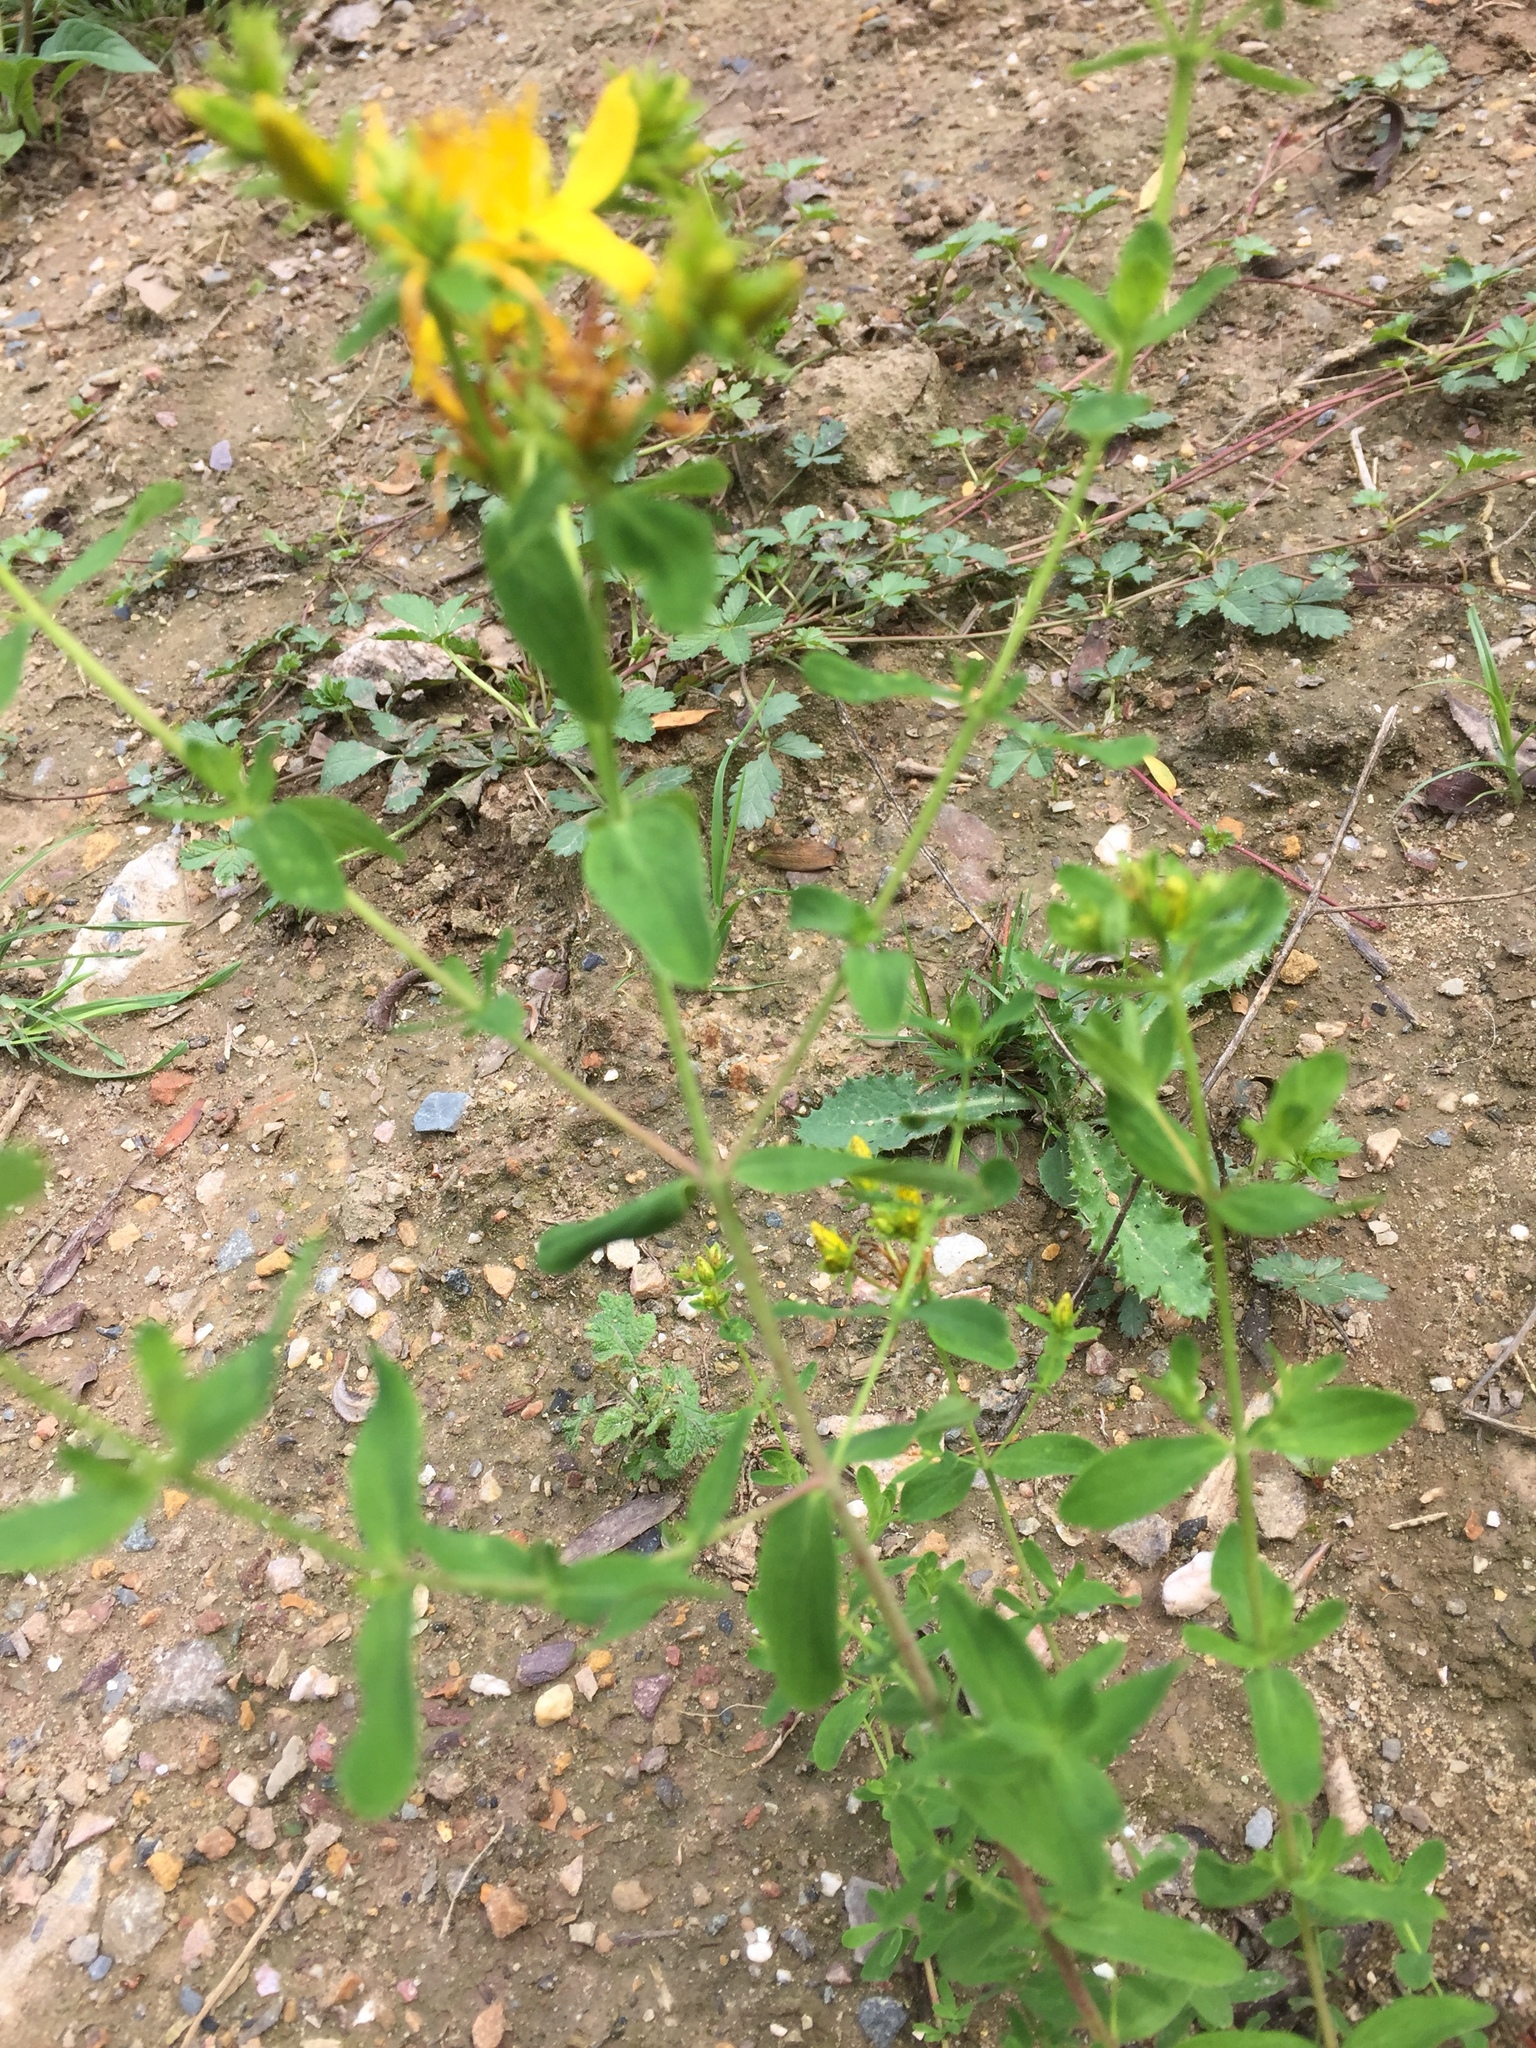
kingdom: Plantae
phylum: Tracheophyta
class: Magnoliopsida
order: Malpighiales
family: Hypericaceae
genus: Hypericum
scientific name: Hypericum perforatum
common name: Common st. johnswort
